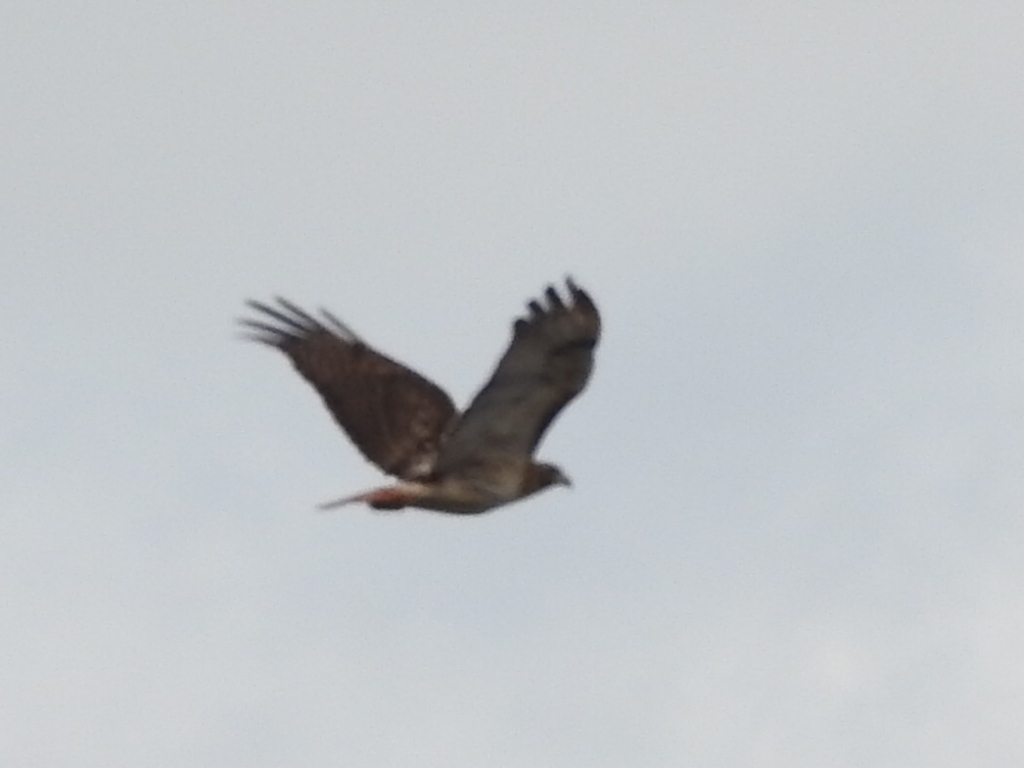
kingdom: Animalia
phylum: Chordata
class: Aves
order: Accipitriformes
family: Accipitridae
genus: Buteo
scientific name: Buteo jamaicensis
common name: Red-tailed hawk
